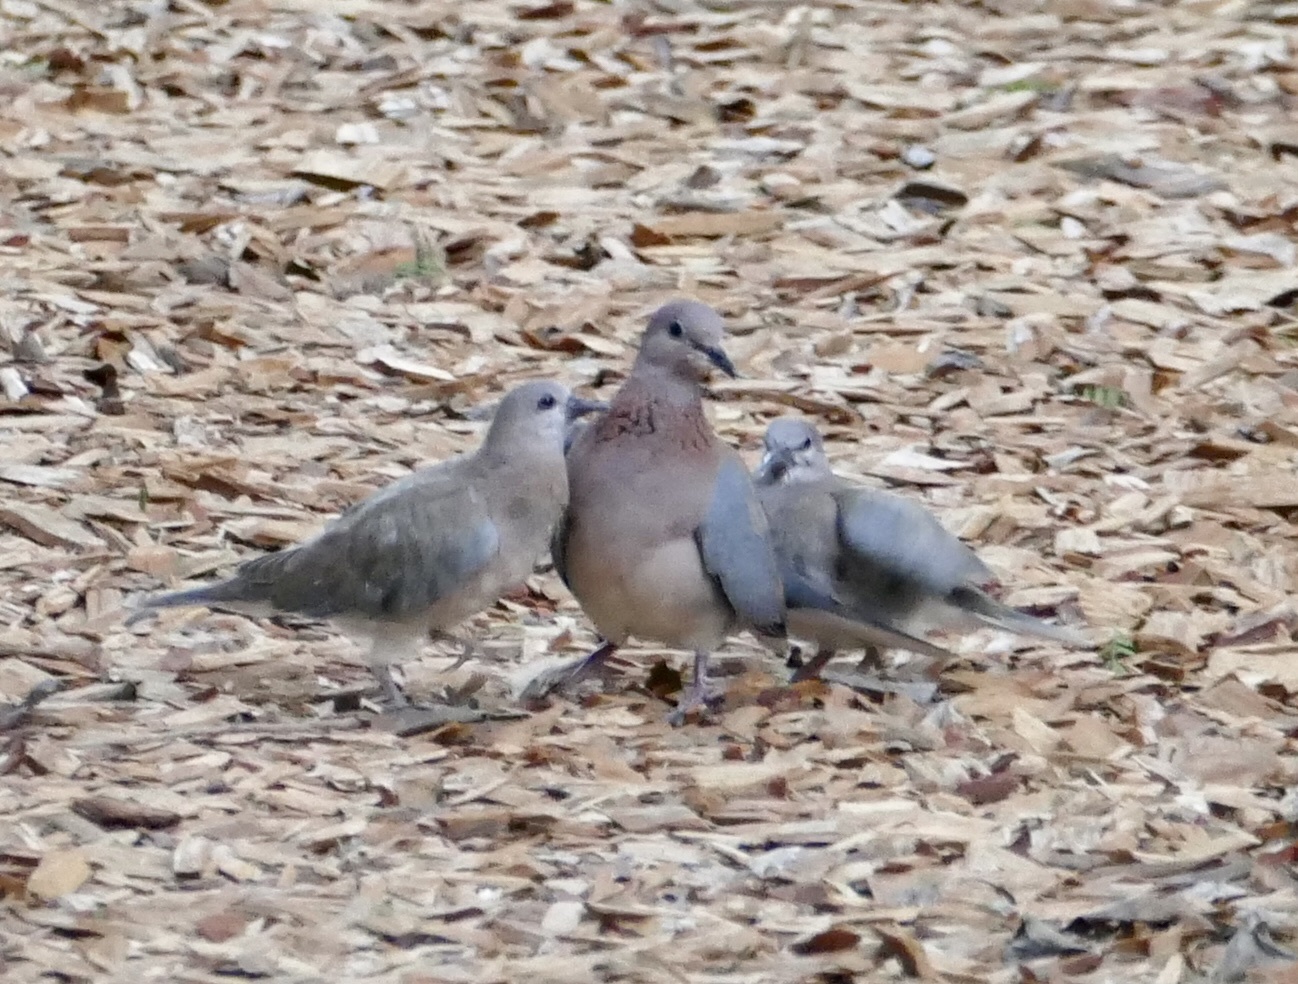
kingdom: Animalia
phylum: Chordata
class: Aves
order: Columbiformes
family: Columbidae
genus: Spilopelia
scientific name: Spilopelia senegalensis
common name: Laughing dove
